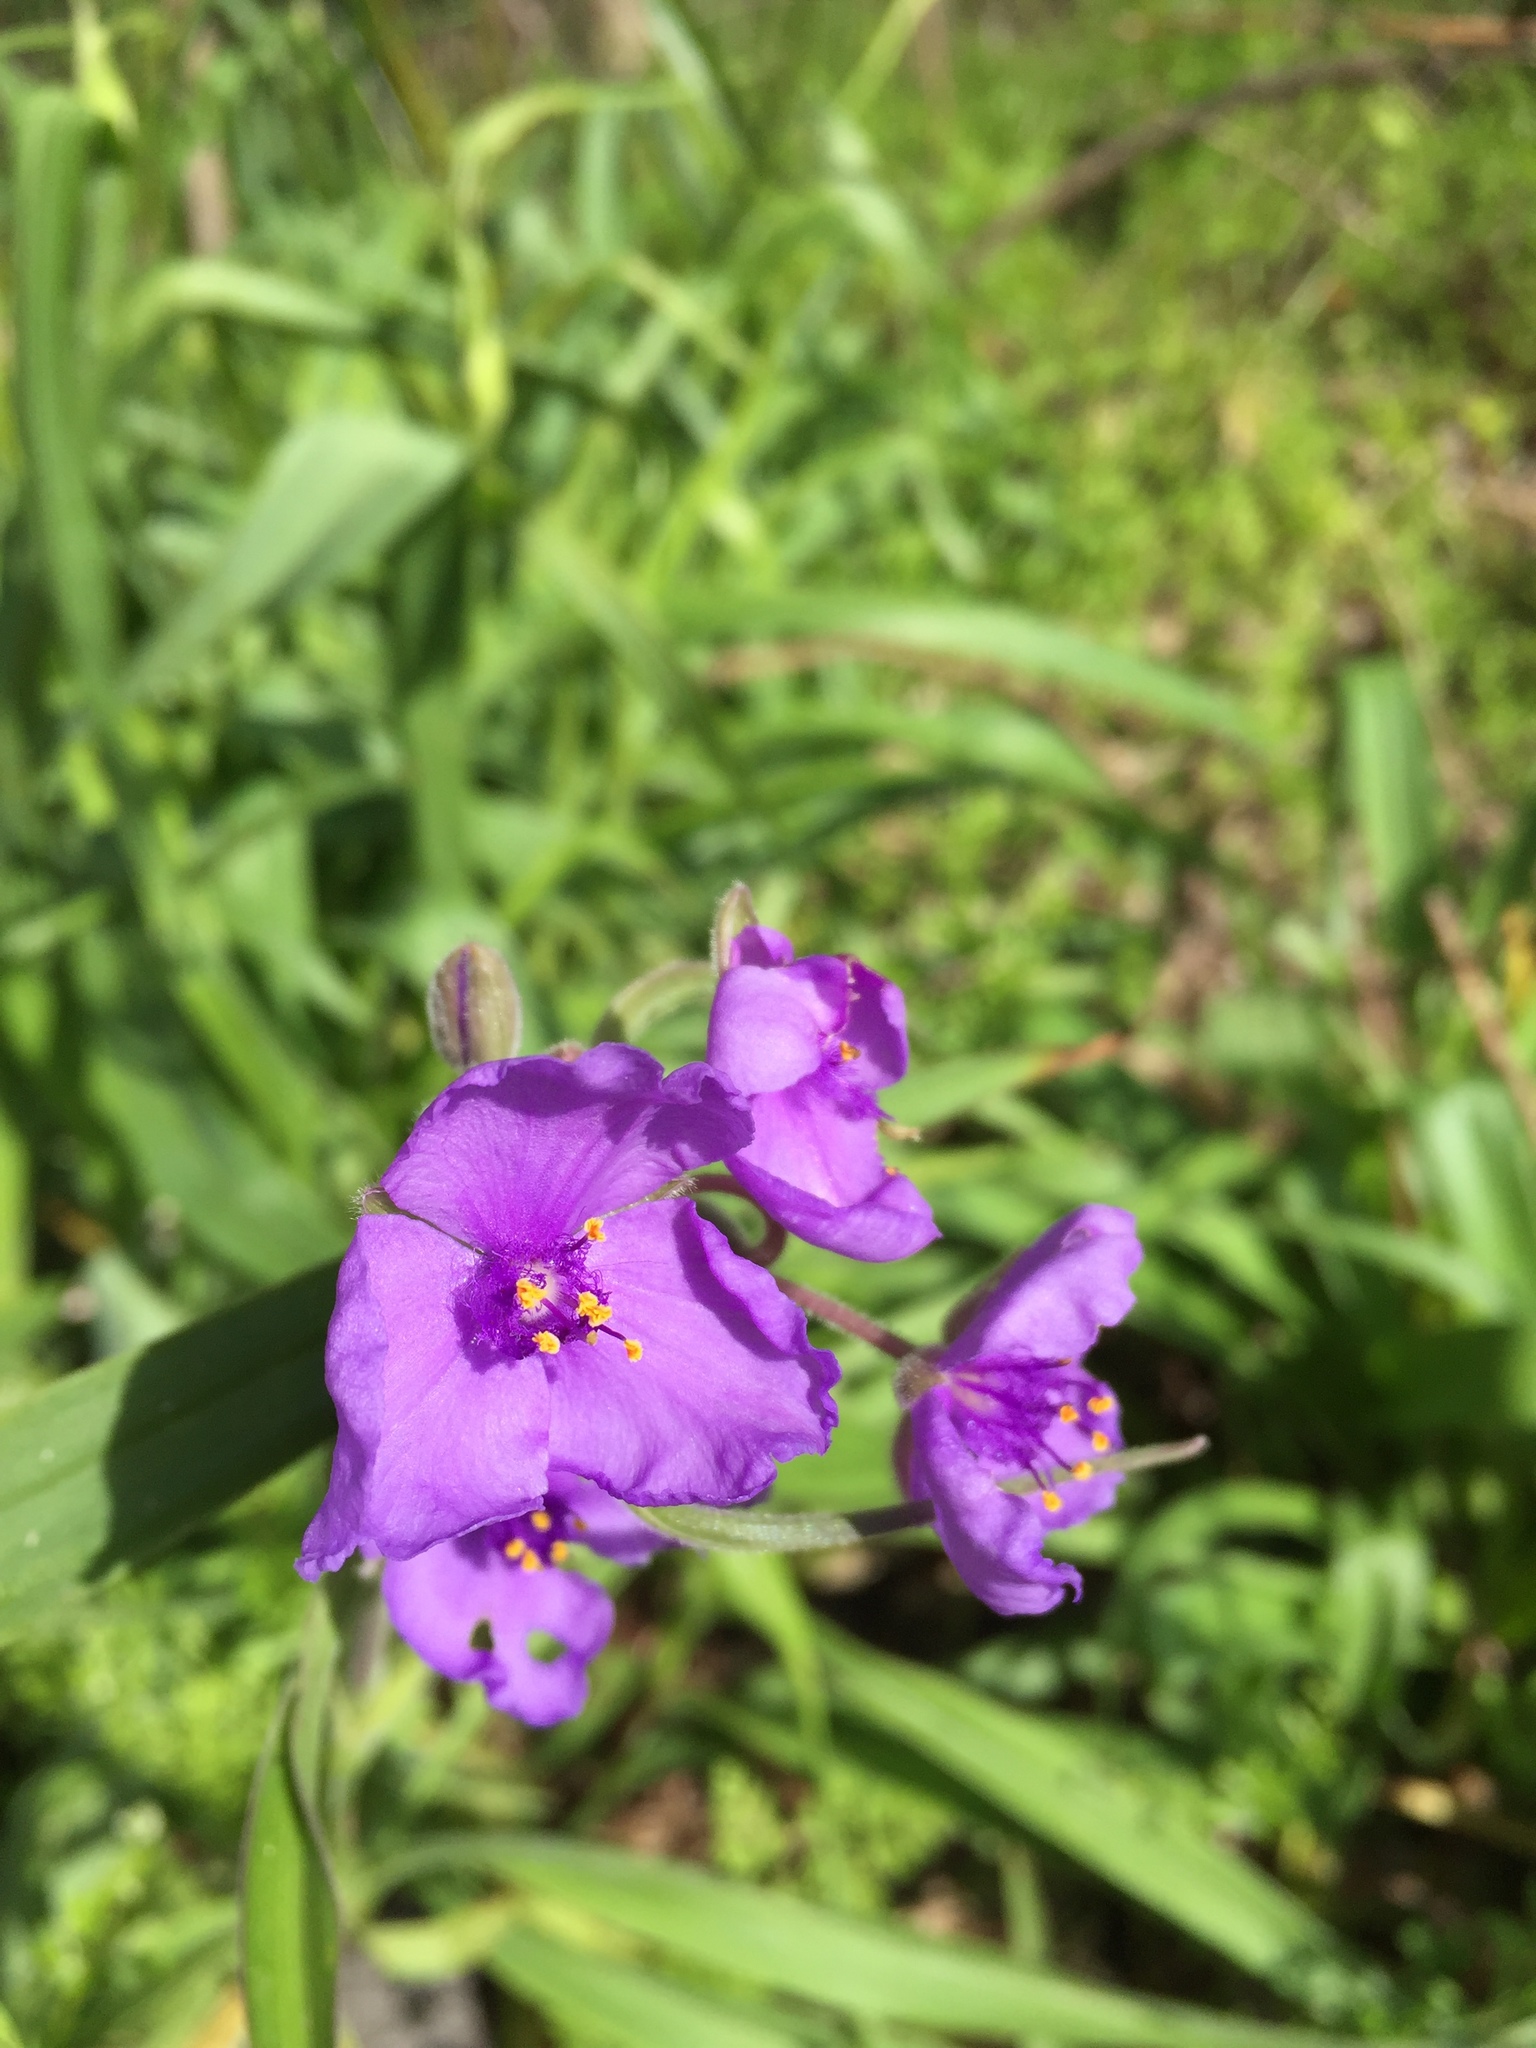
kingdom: Plantae
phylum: Tracheophyta
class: Liliopsida
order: Commelinales
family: Commelinaceae
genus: Tradescantia
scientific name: Tradescantia gigantea
